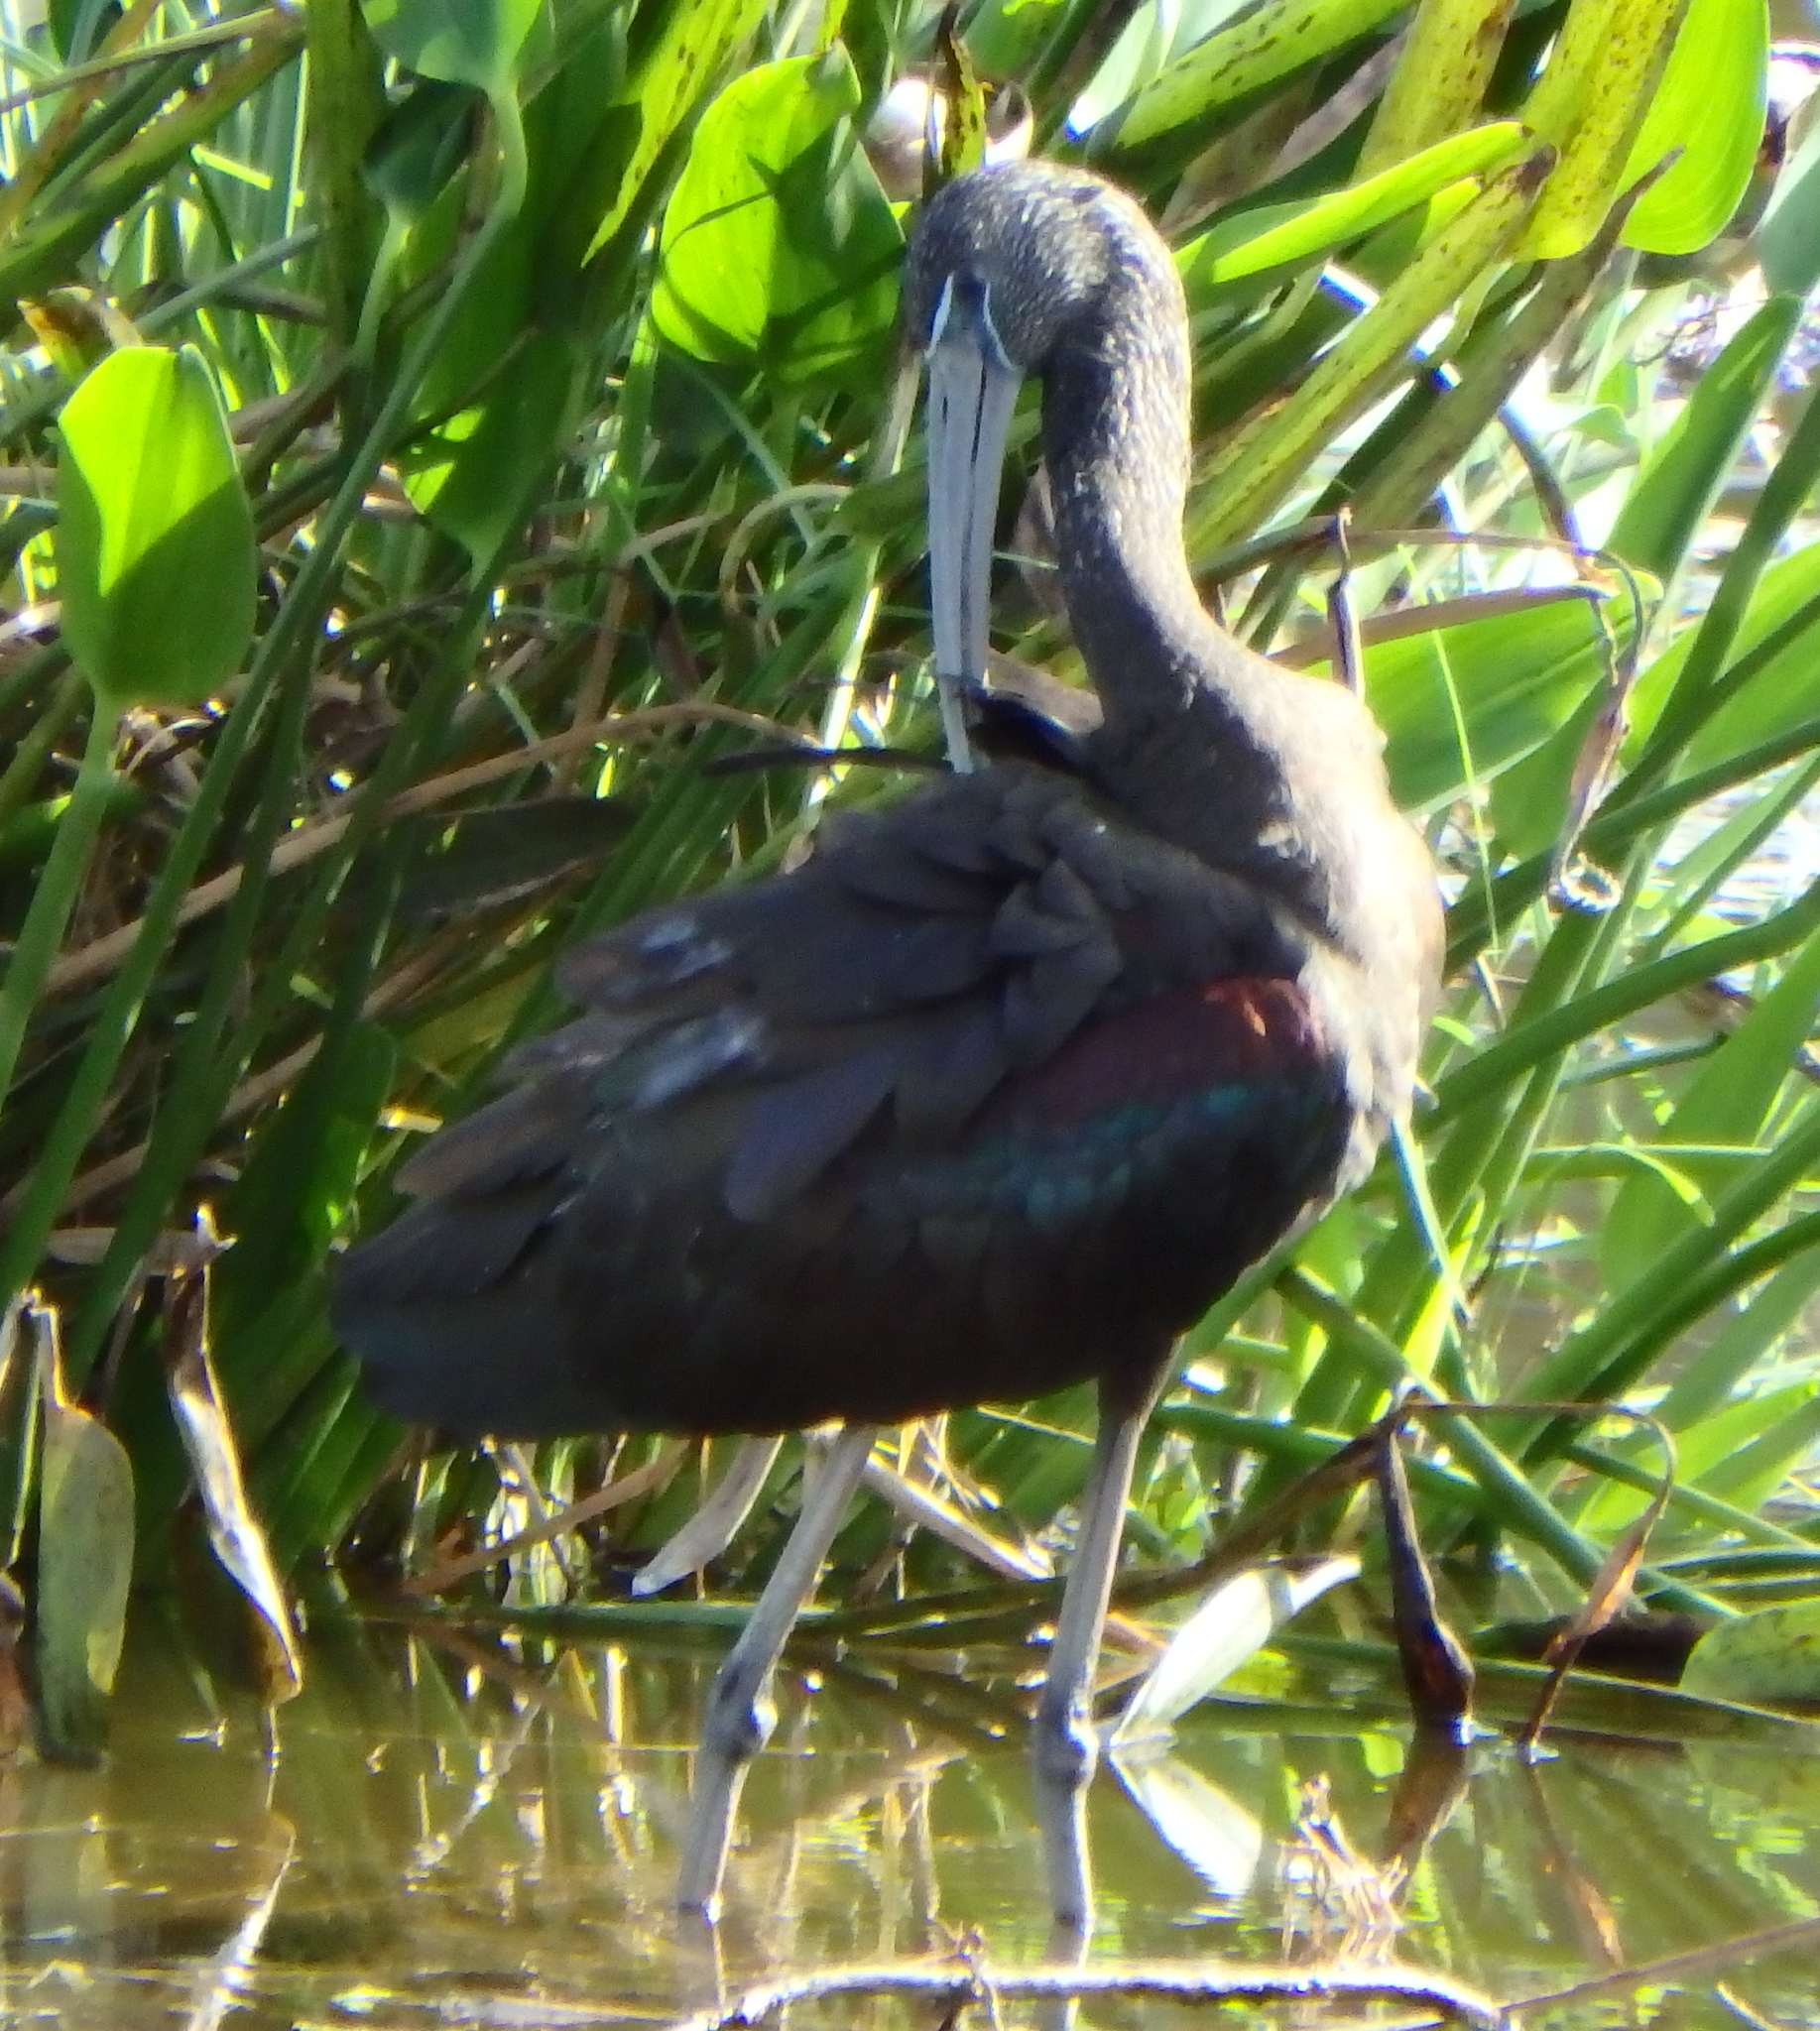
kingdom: Animalia
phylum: Chordata
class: Aves
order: Pelecaniformes
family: Threskiornithidae
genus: Plegadis
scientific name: Plegadis falcinellus
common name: Glossy ibis
